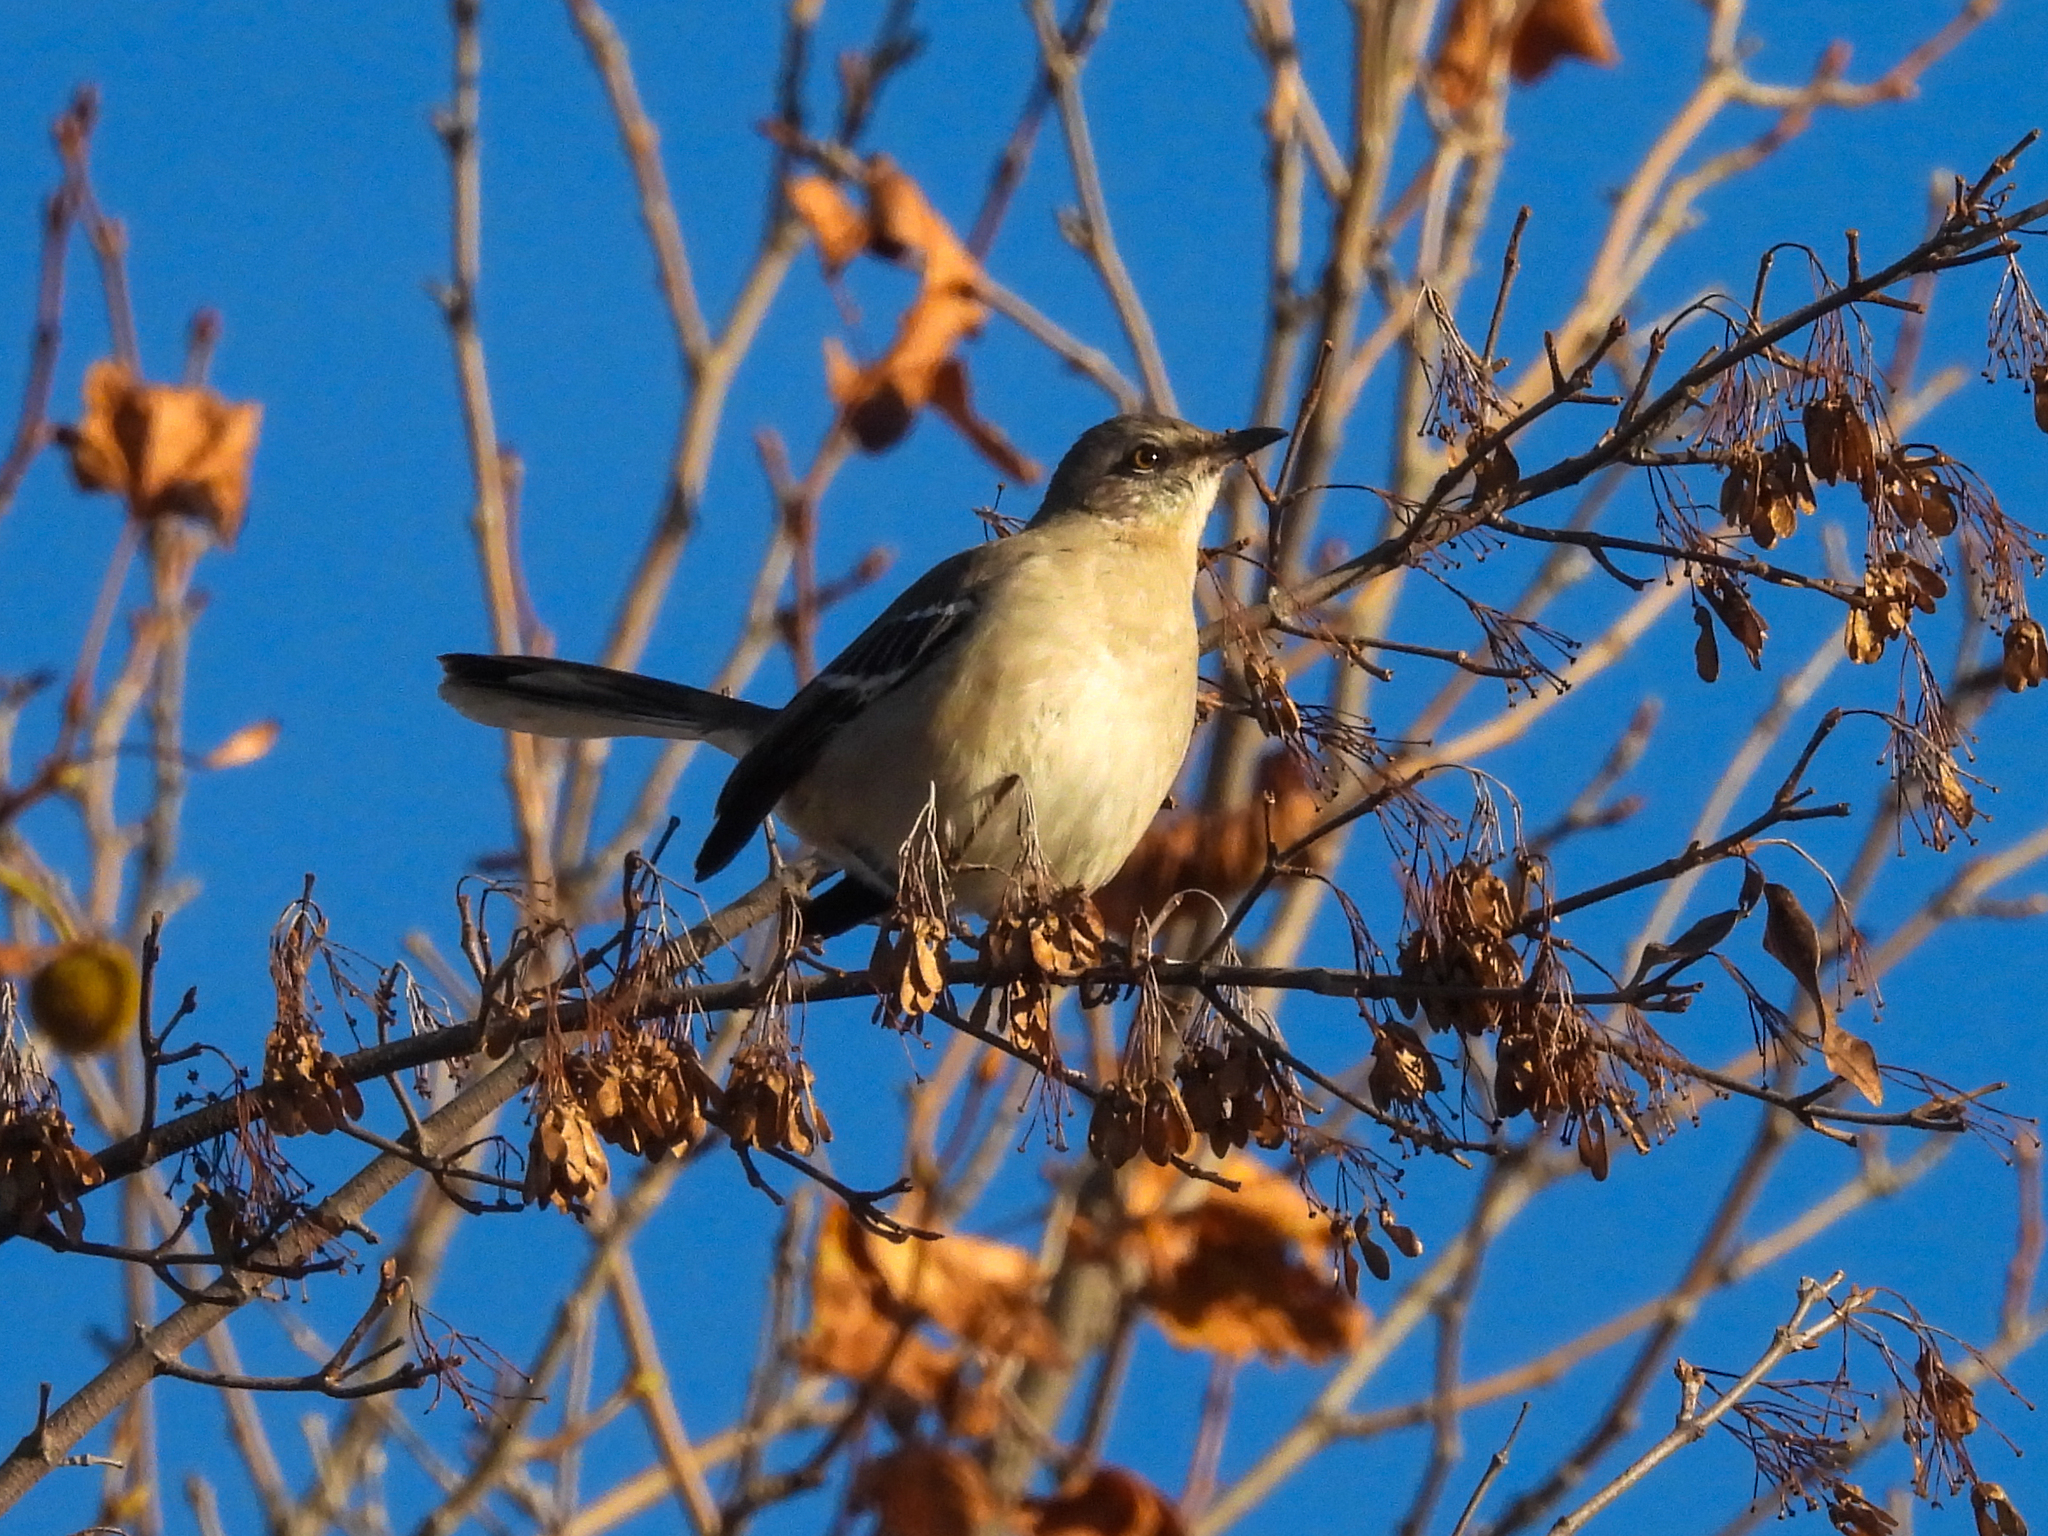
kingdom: Animalia
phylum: Chordata
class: Aves
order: Passeriformes
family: Mimidae
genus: Mimus
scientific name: Mimus polyglottos
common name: Northern mockingbird
